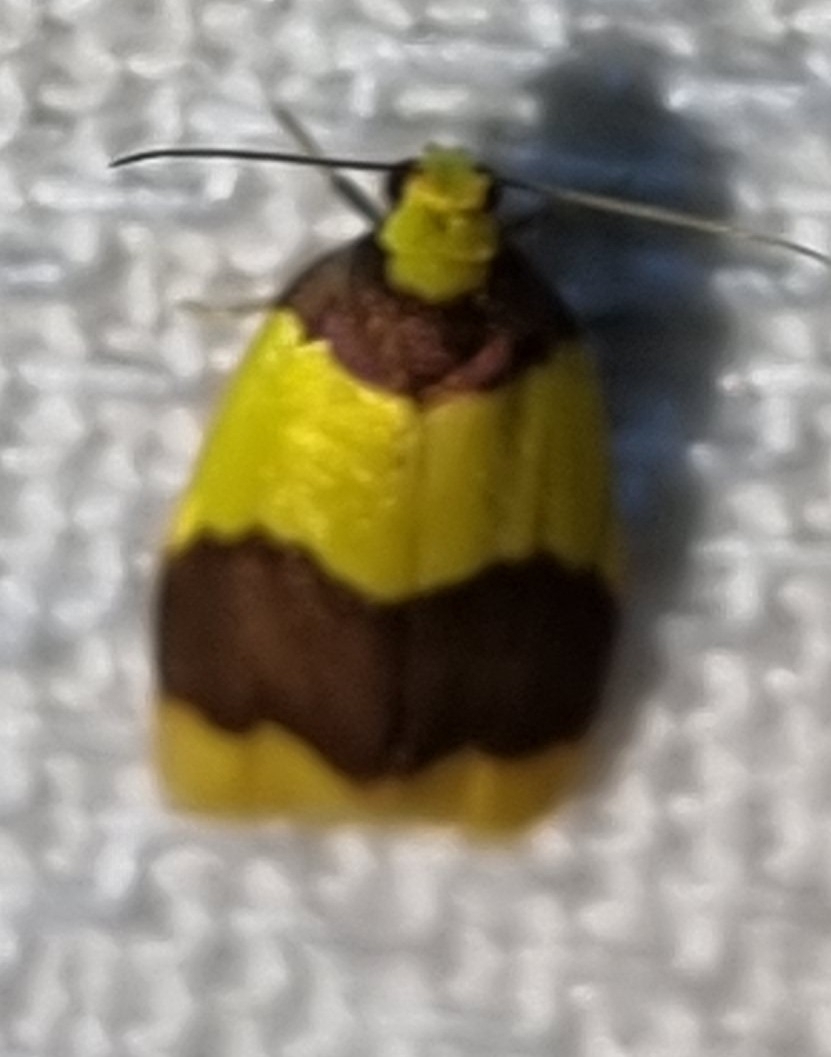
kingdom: Animalia
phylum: Arthropoda
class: Insecta
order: Lepidoptera
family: Erebidae
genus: Heterallactis
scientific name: Heterallactis microchrysa
